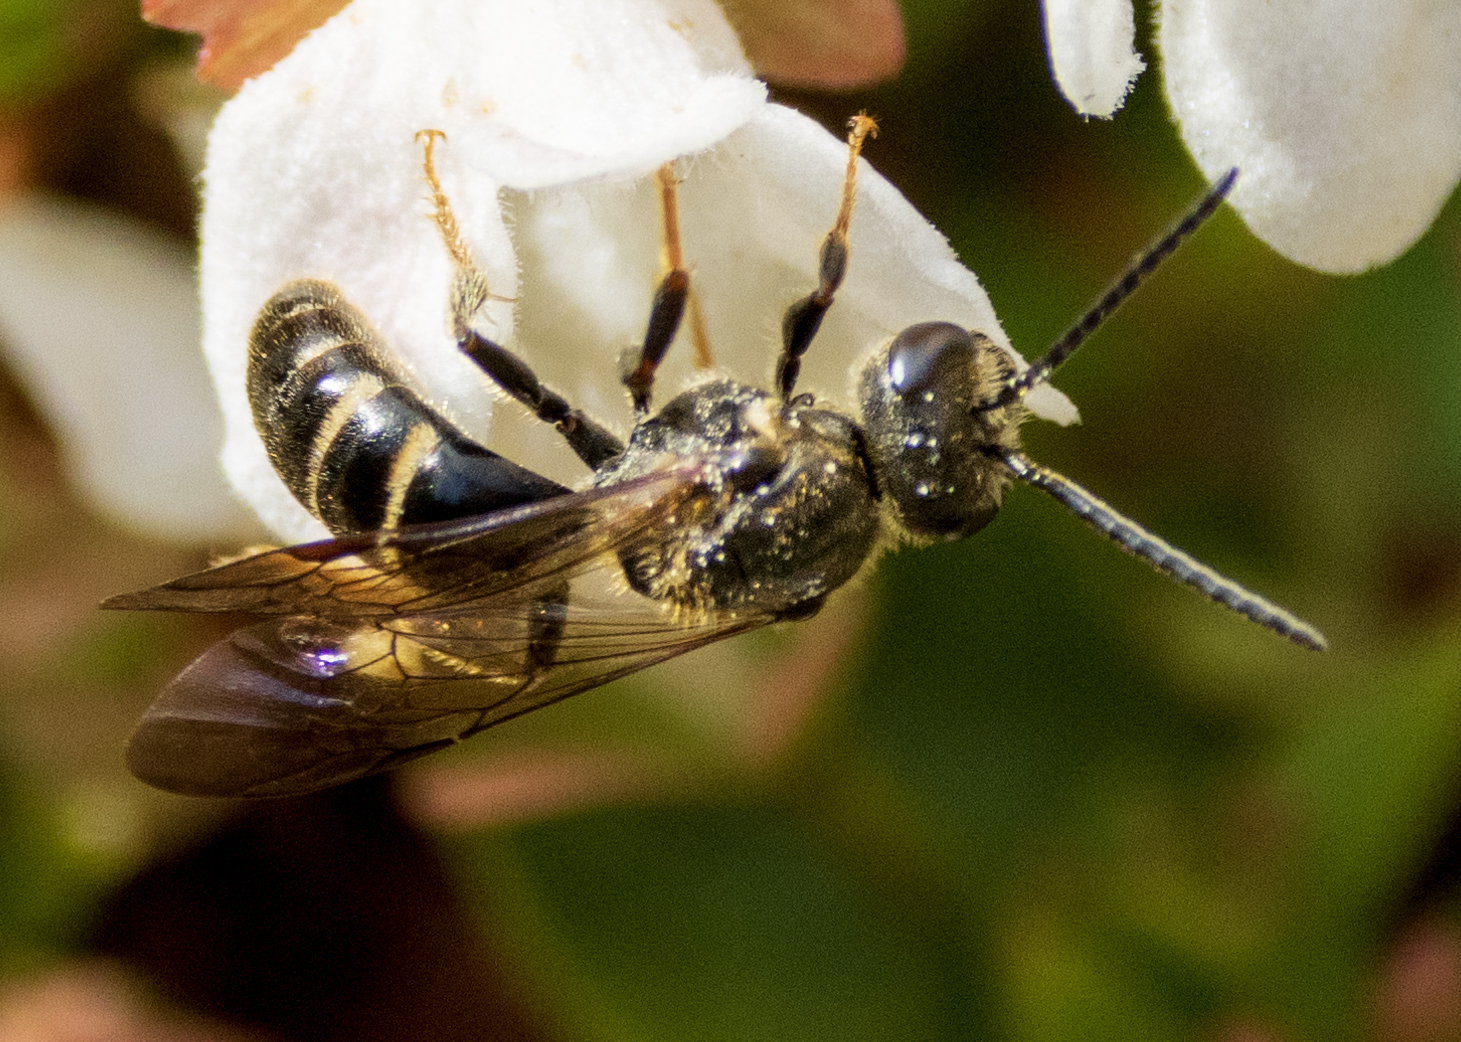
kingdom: Animalia
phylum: Arthropoda
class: Insecta
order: Hymenoptera
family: Halictidae
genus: Lasioglossum
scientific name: Lasioglossum fuscipenne
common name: Brown-winged sweat bee
